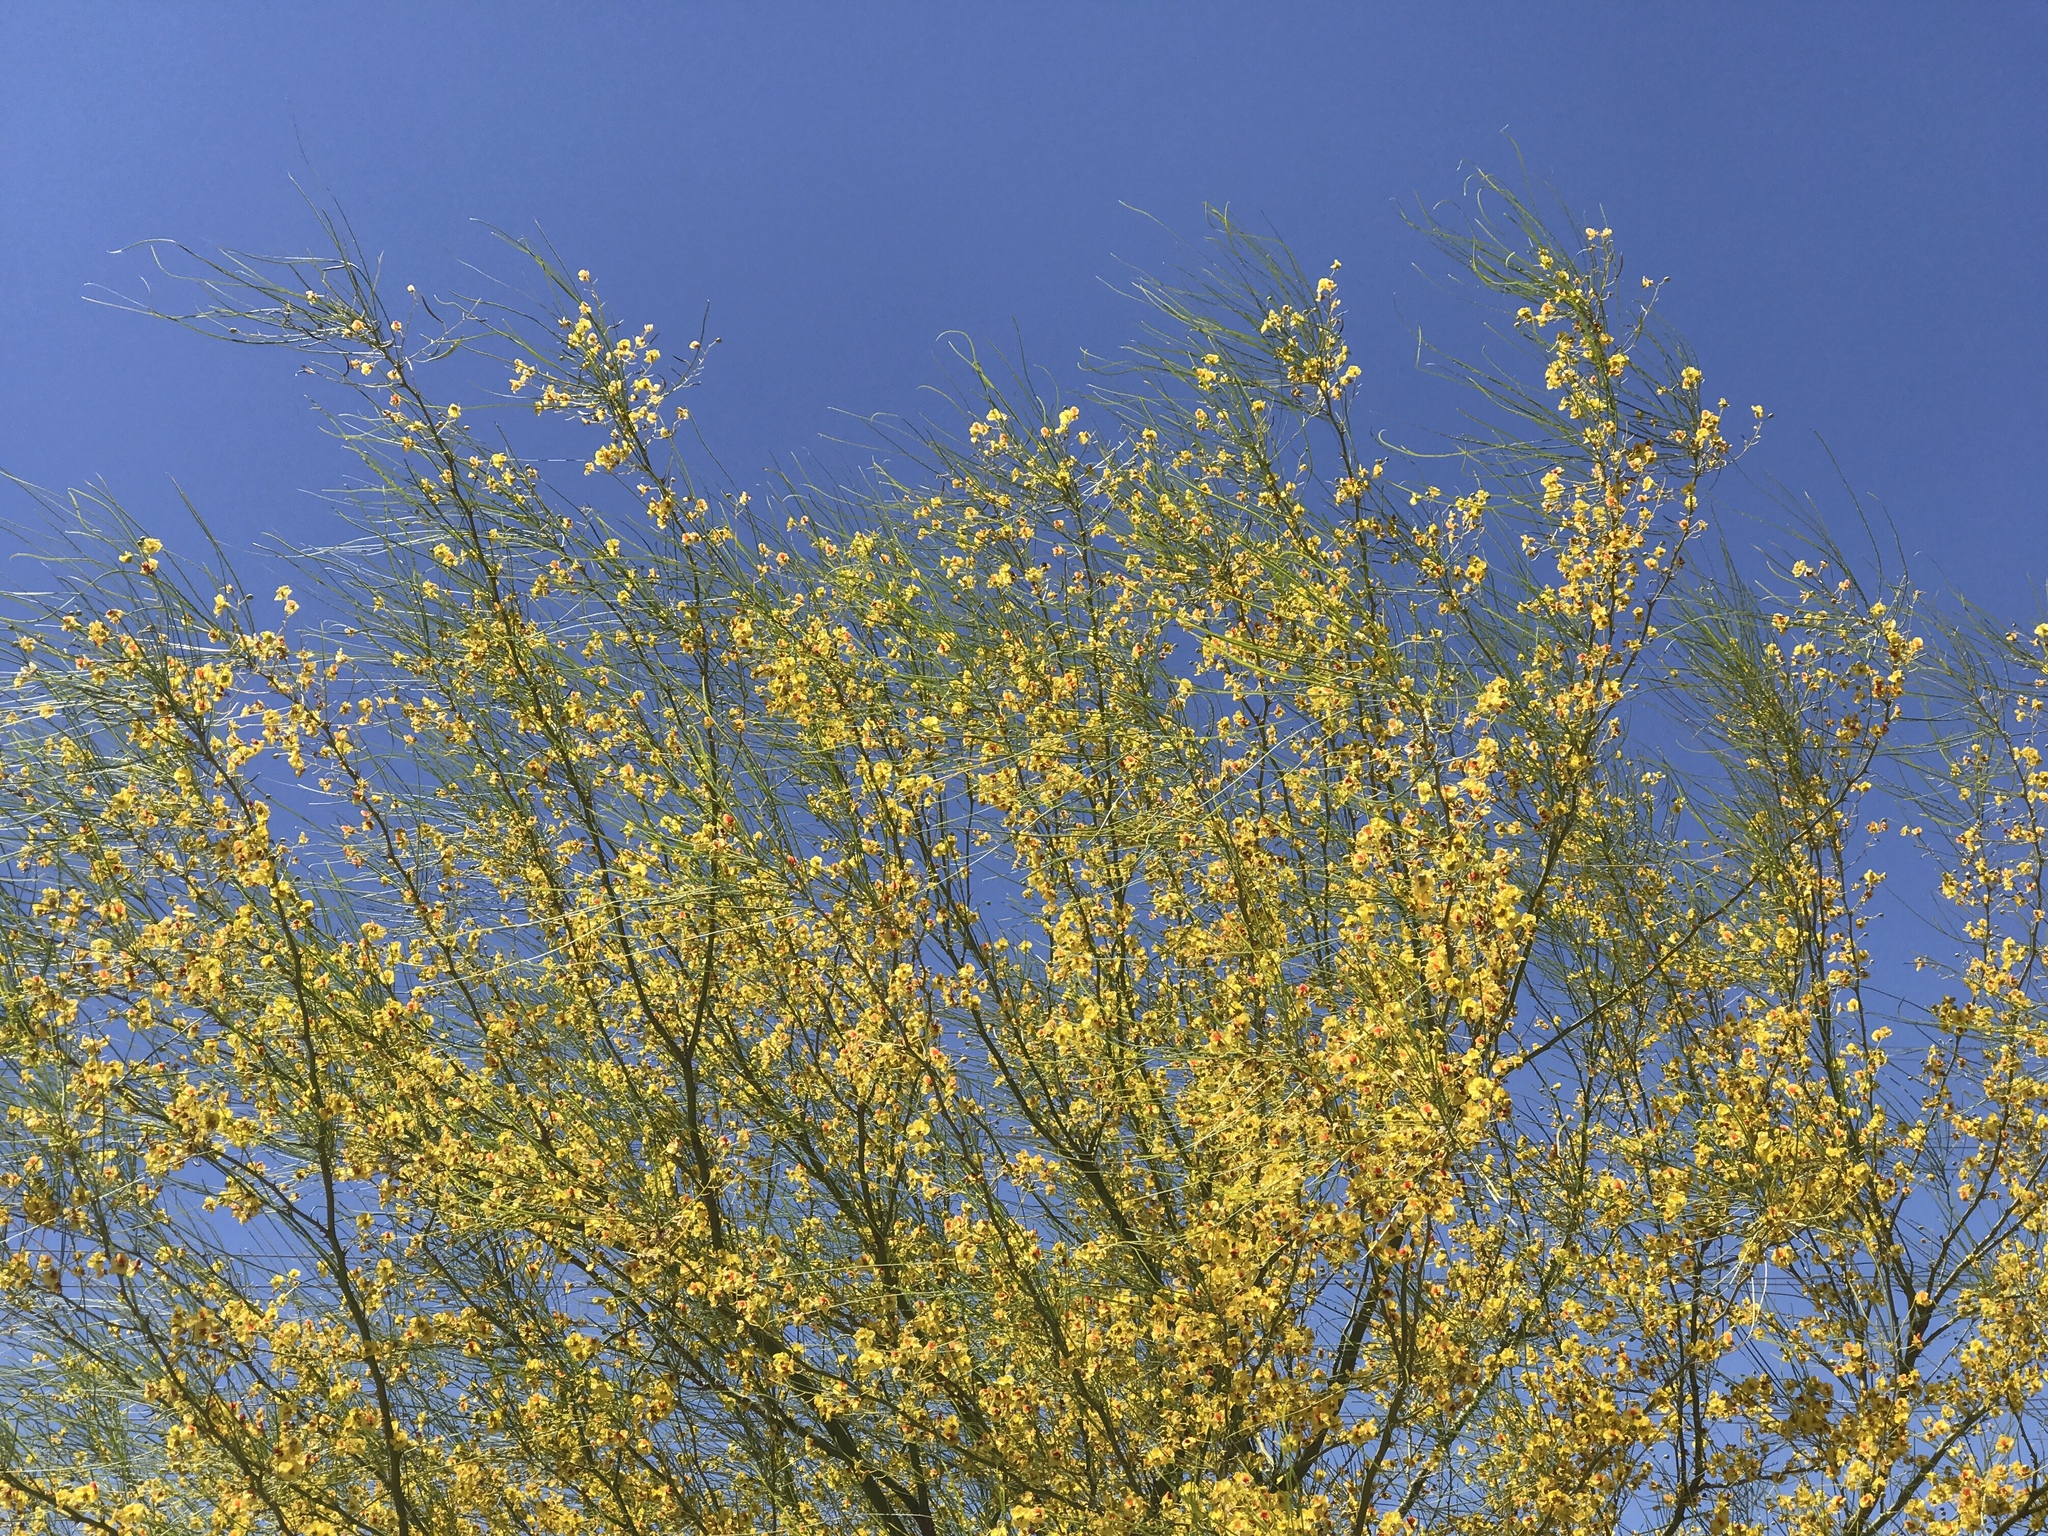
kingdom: Plantae
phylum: Tracheophyta
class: Magnoliopsida
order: Fabales
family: Fabaceae
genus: Parkinsonia
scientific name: Parkinsonia aculeata
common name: Jerusalem thorn
